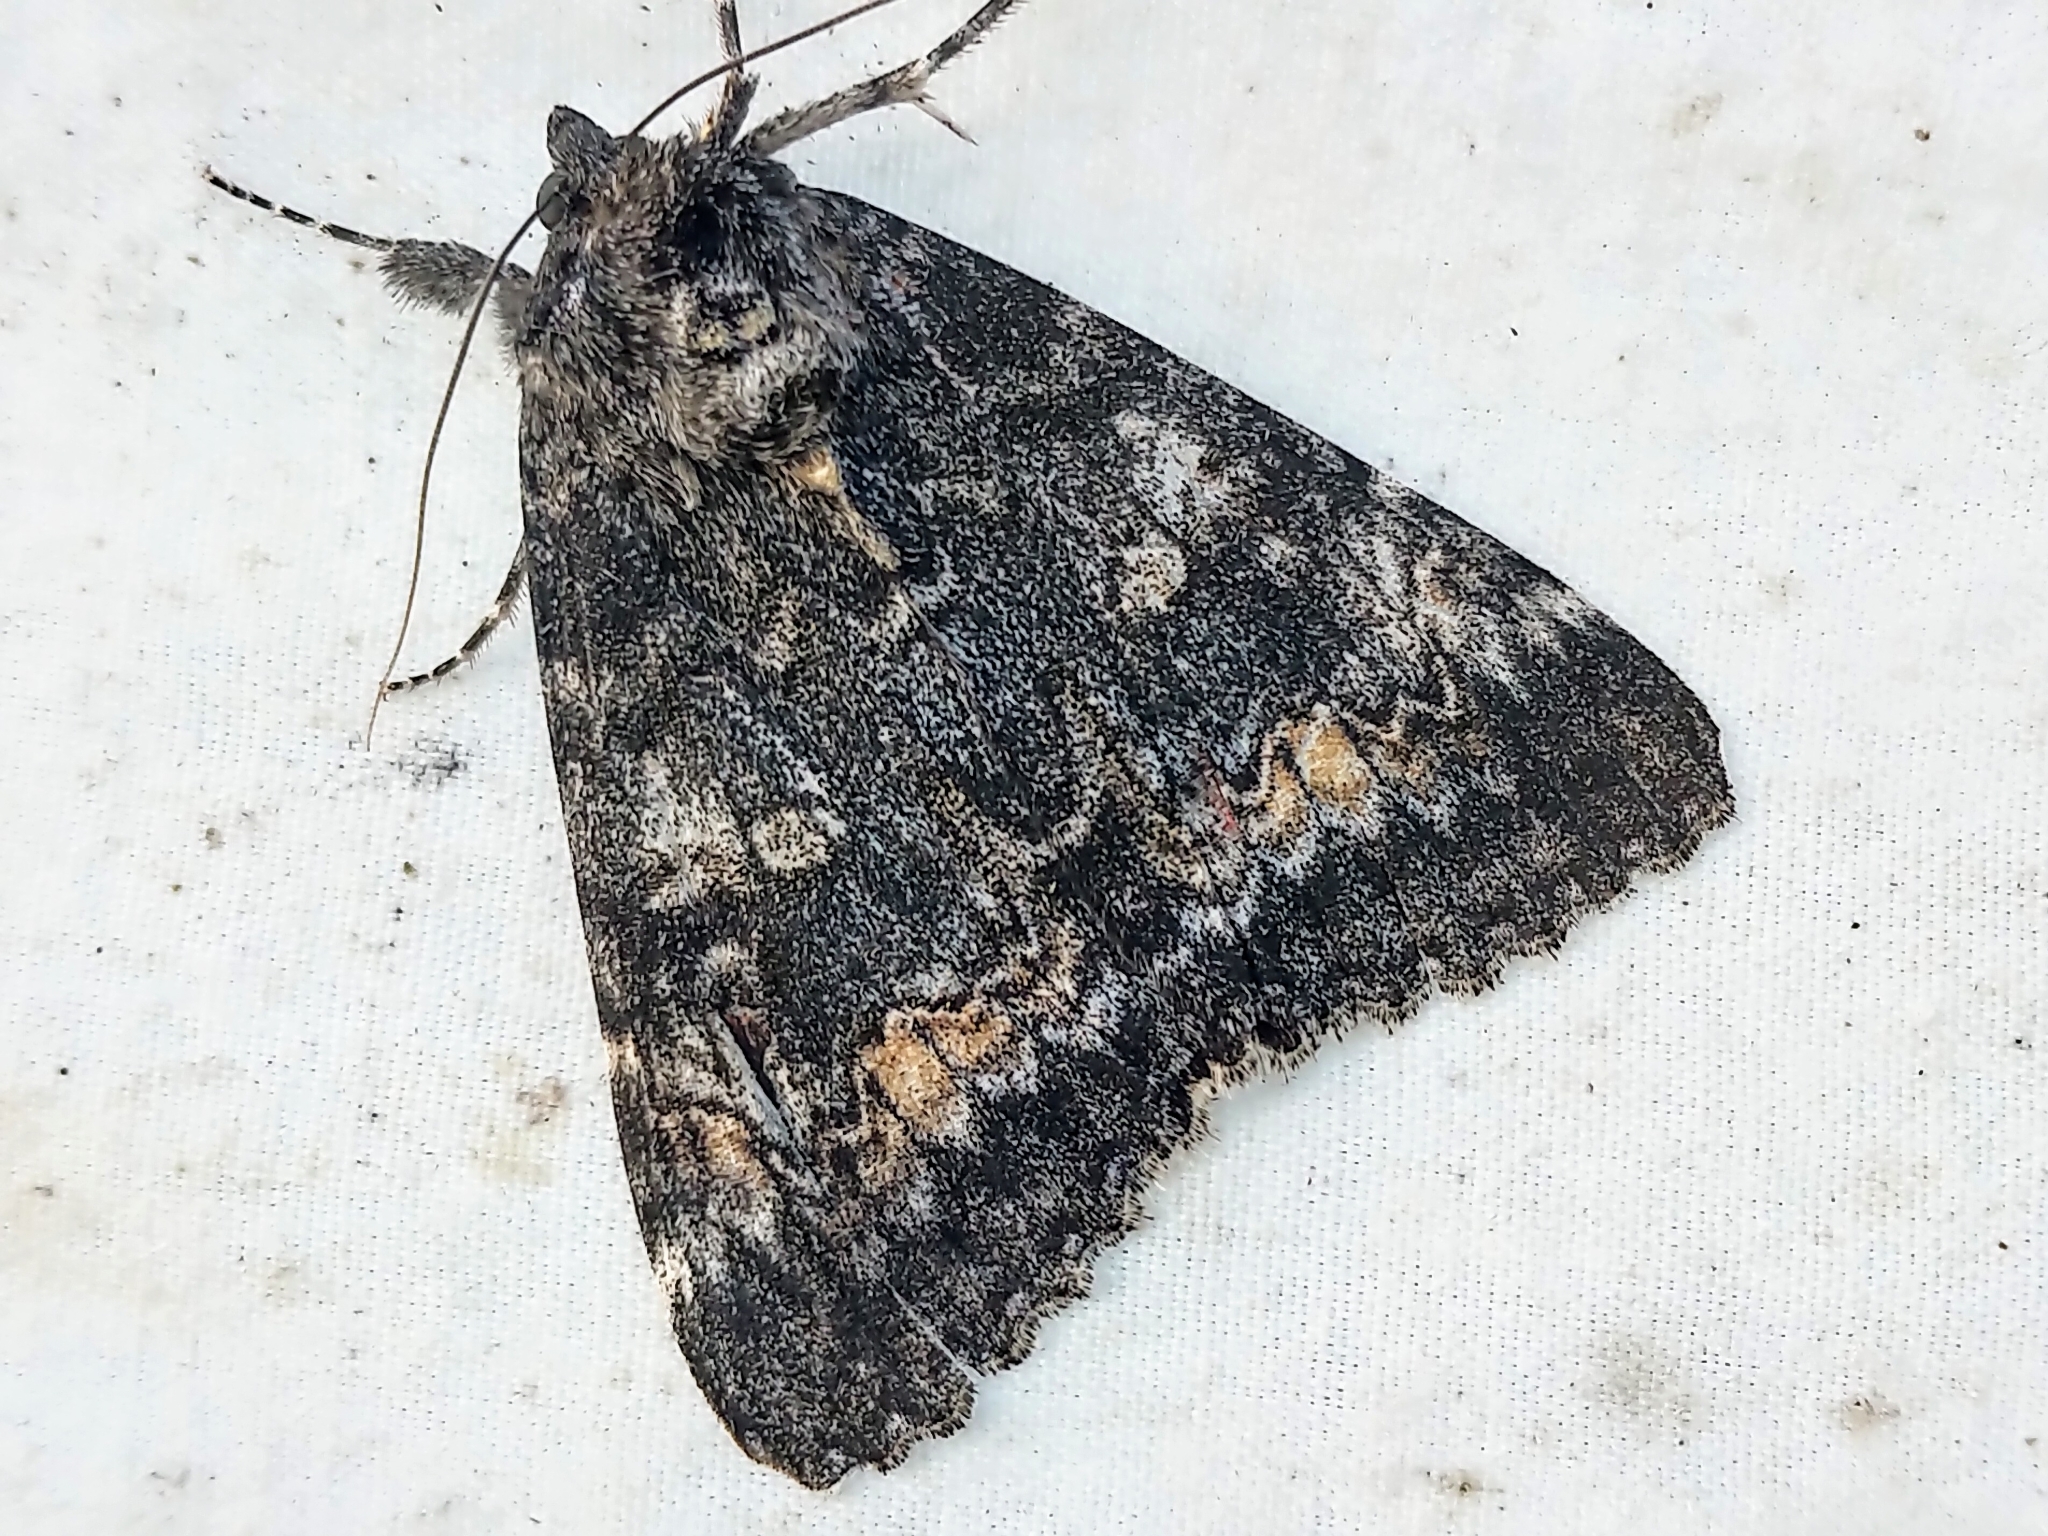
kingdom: Animalia
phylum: Arthropoda
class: Insecta
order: Lepidoptera
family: Erebidae
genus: Catocala
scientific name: Catocala briseis
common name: Briseis underwing
